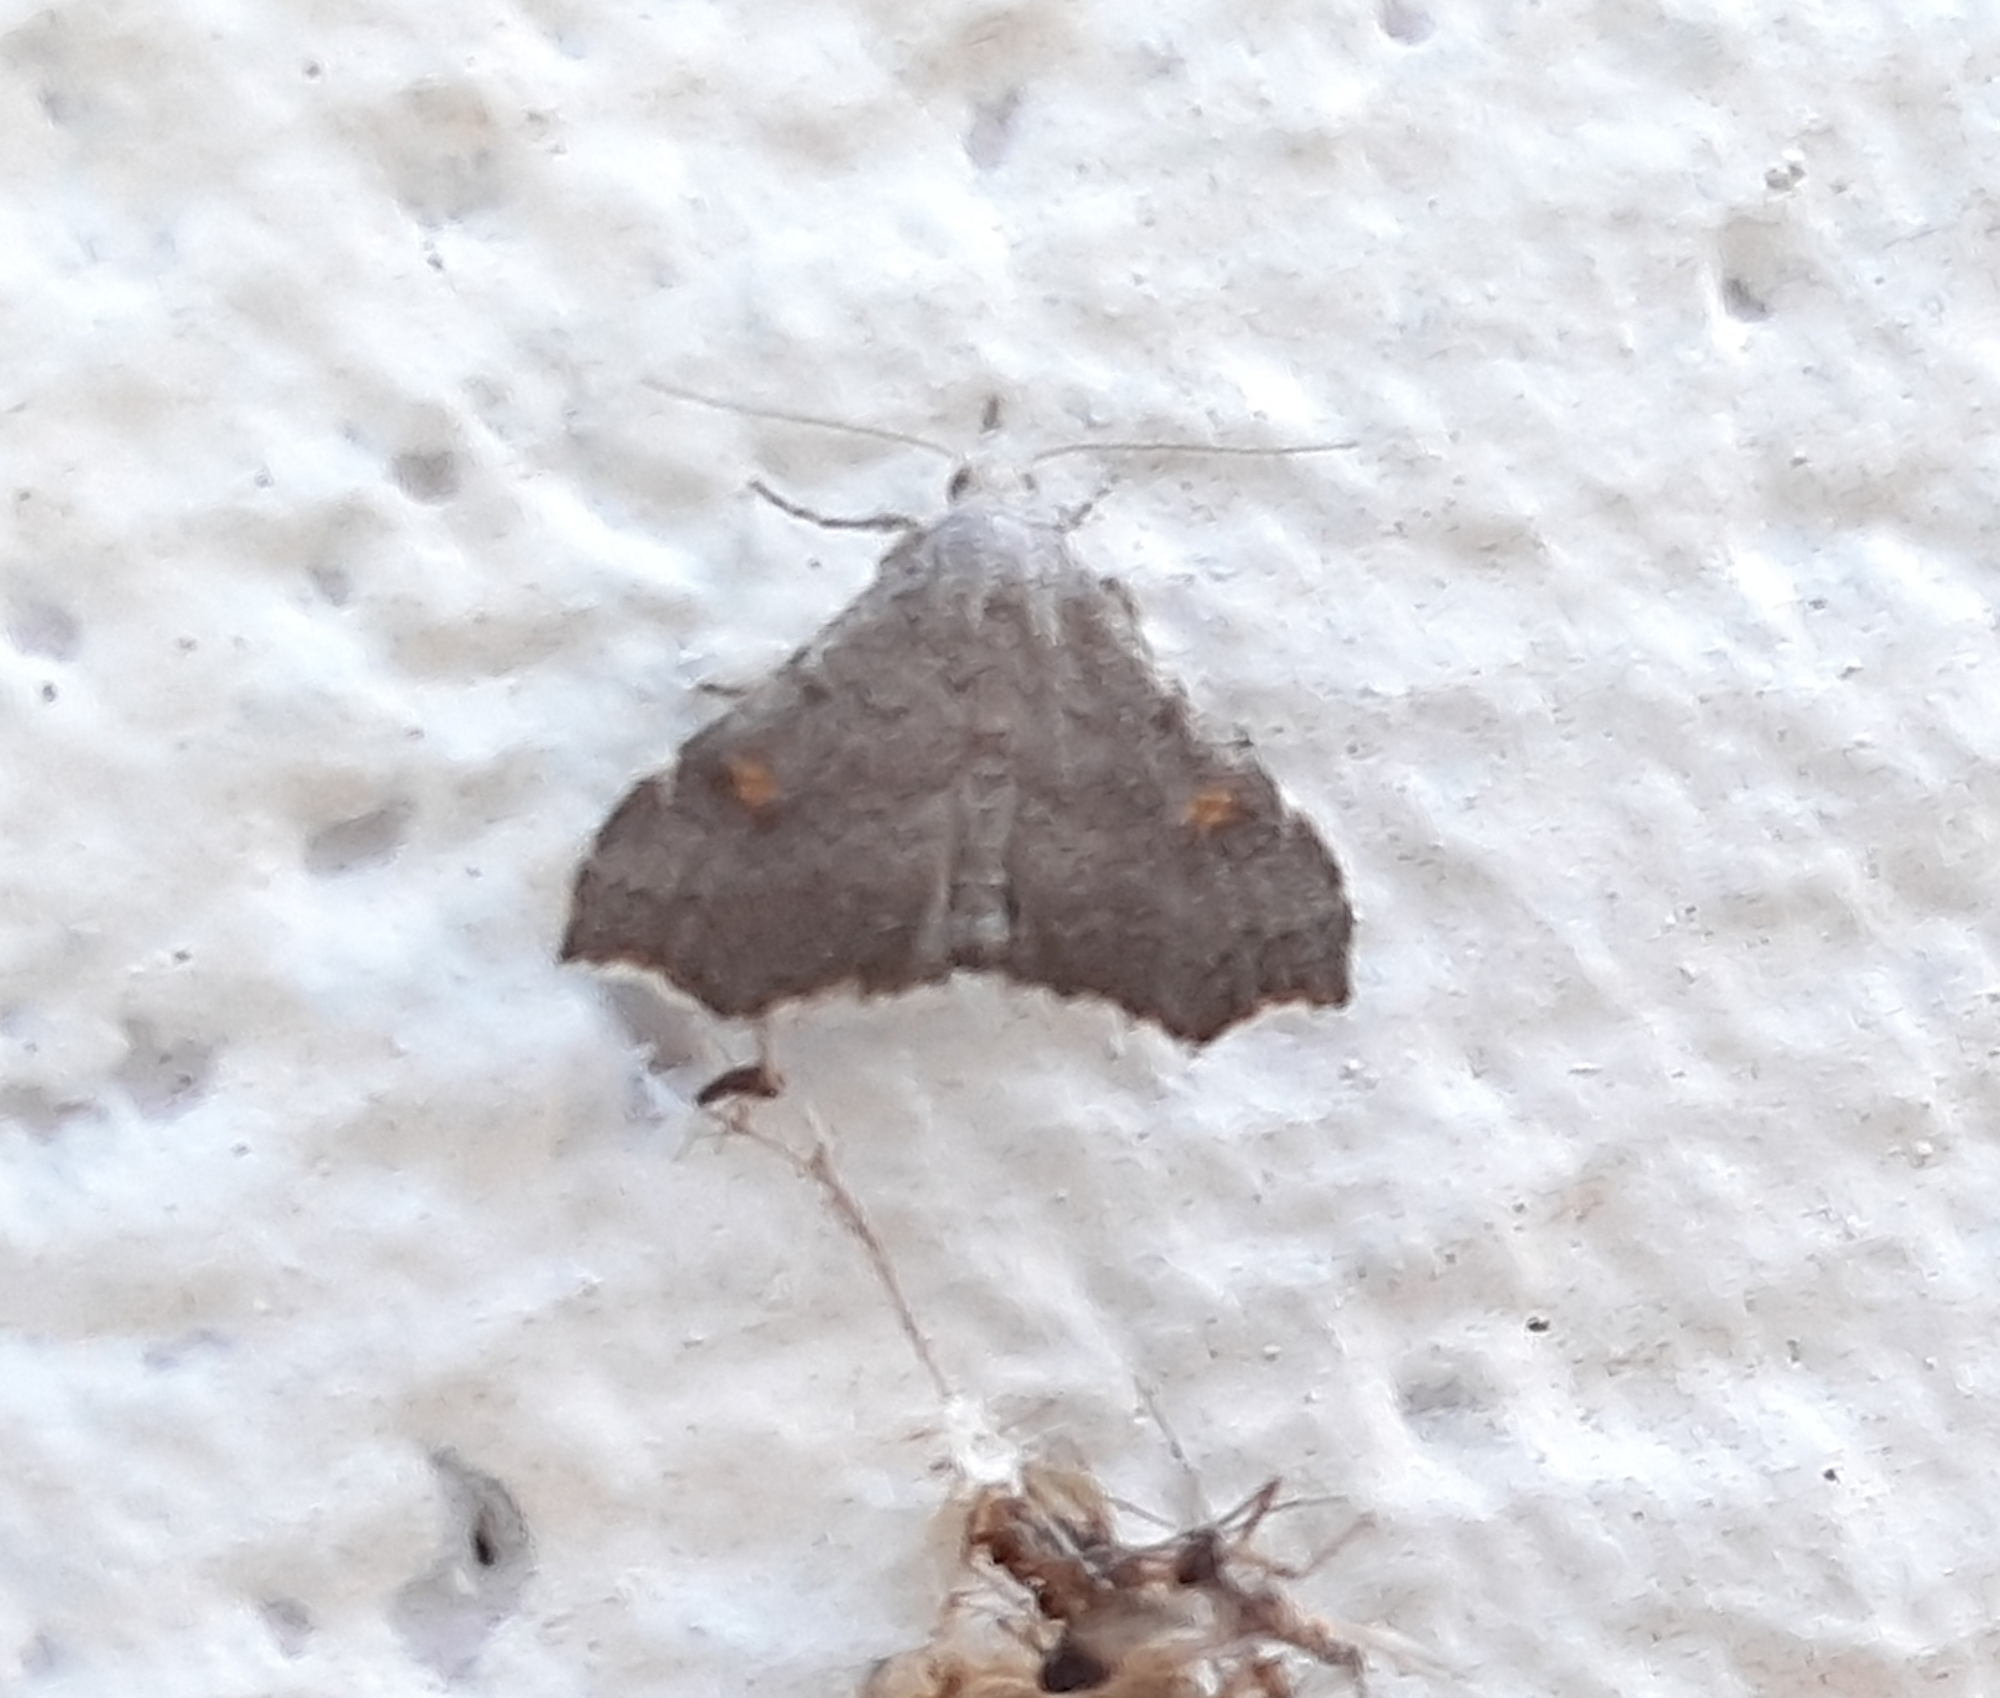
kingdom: Animalia
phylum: Arthropoda
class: Insecta
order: Lepidoptera
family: Erebidae
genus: Redectis
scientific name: Redectis pygmaea
